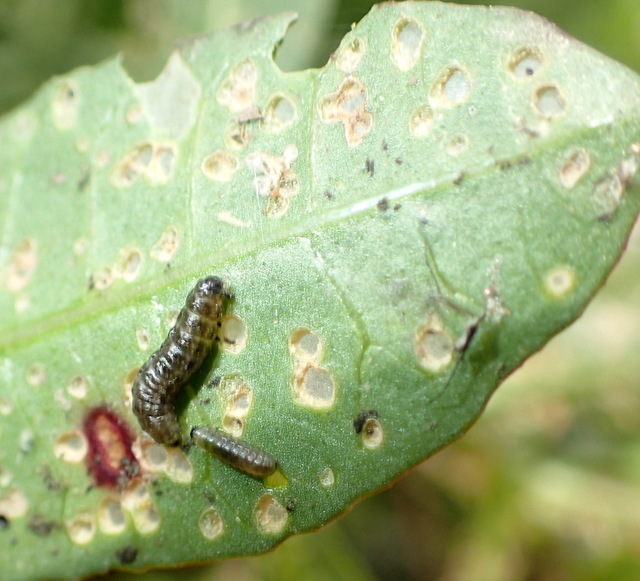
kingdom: Animalia
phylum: Arthropoda
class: Insecta
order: Coleoptera
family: Chrysomelidae
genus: Agasicles
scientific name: Agasicles hygrophila
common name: Alligatorweed flea beetle
